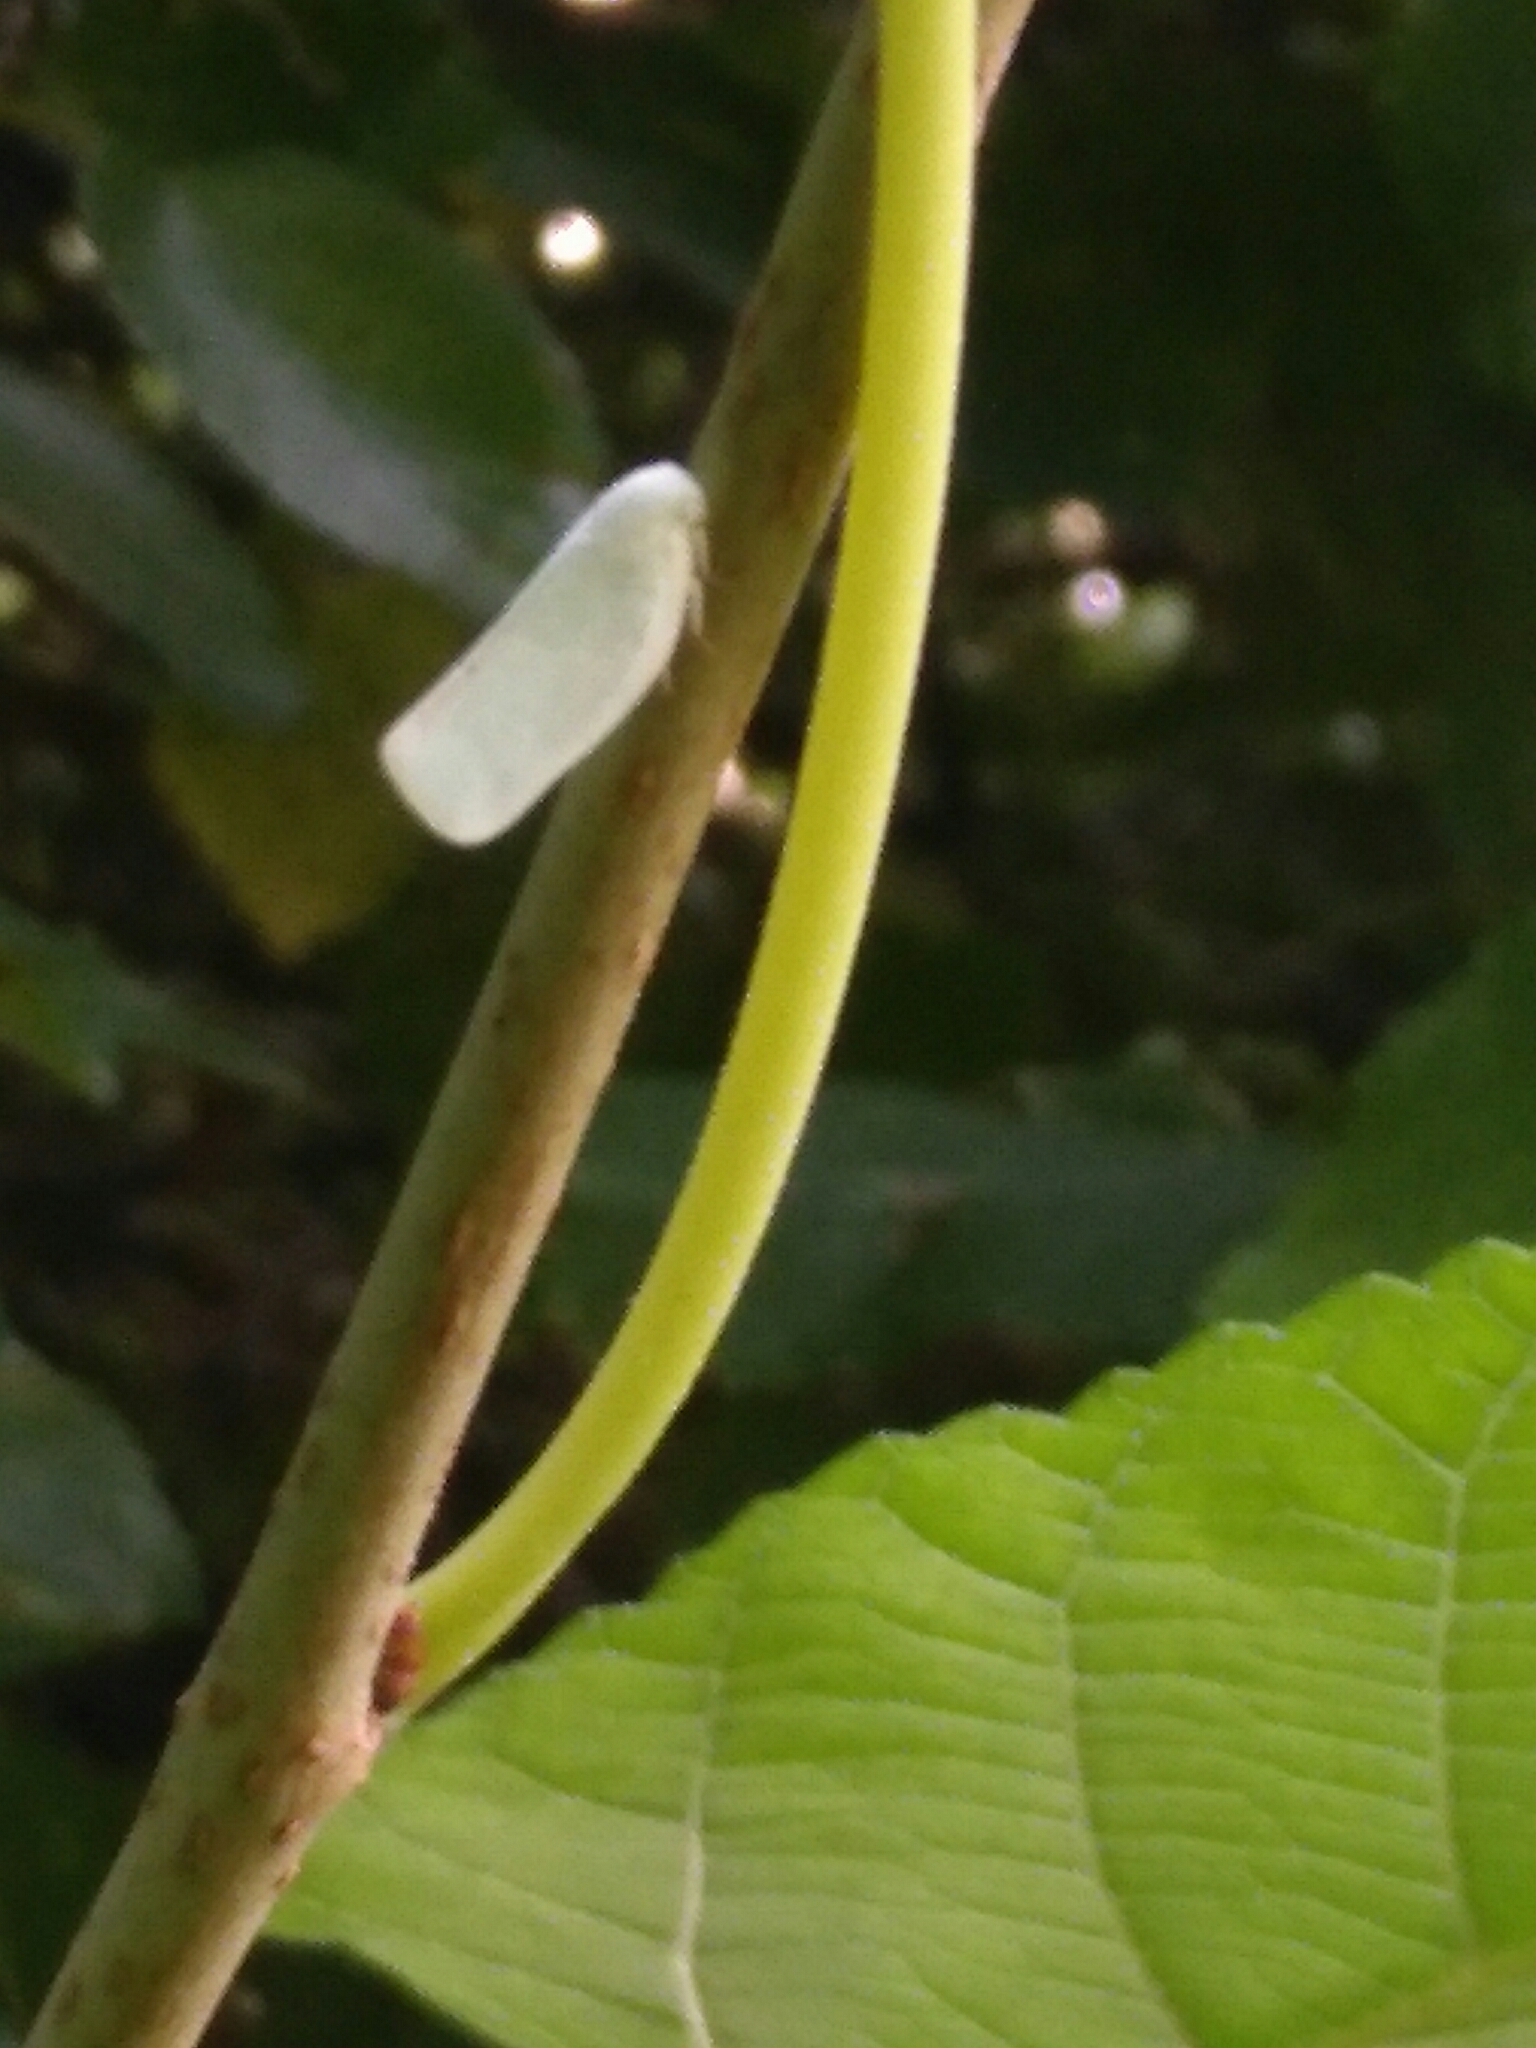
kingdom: Animalia
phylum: Arthropoda
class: Insecta
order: Hemiptera
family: Flatidae
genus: Flatormenis
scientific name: Flatormenis proxima
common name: Northern flatid planthopper
